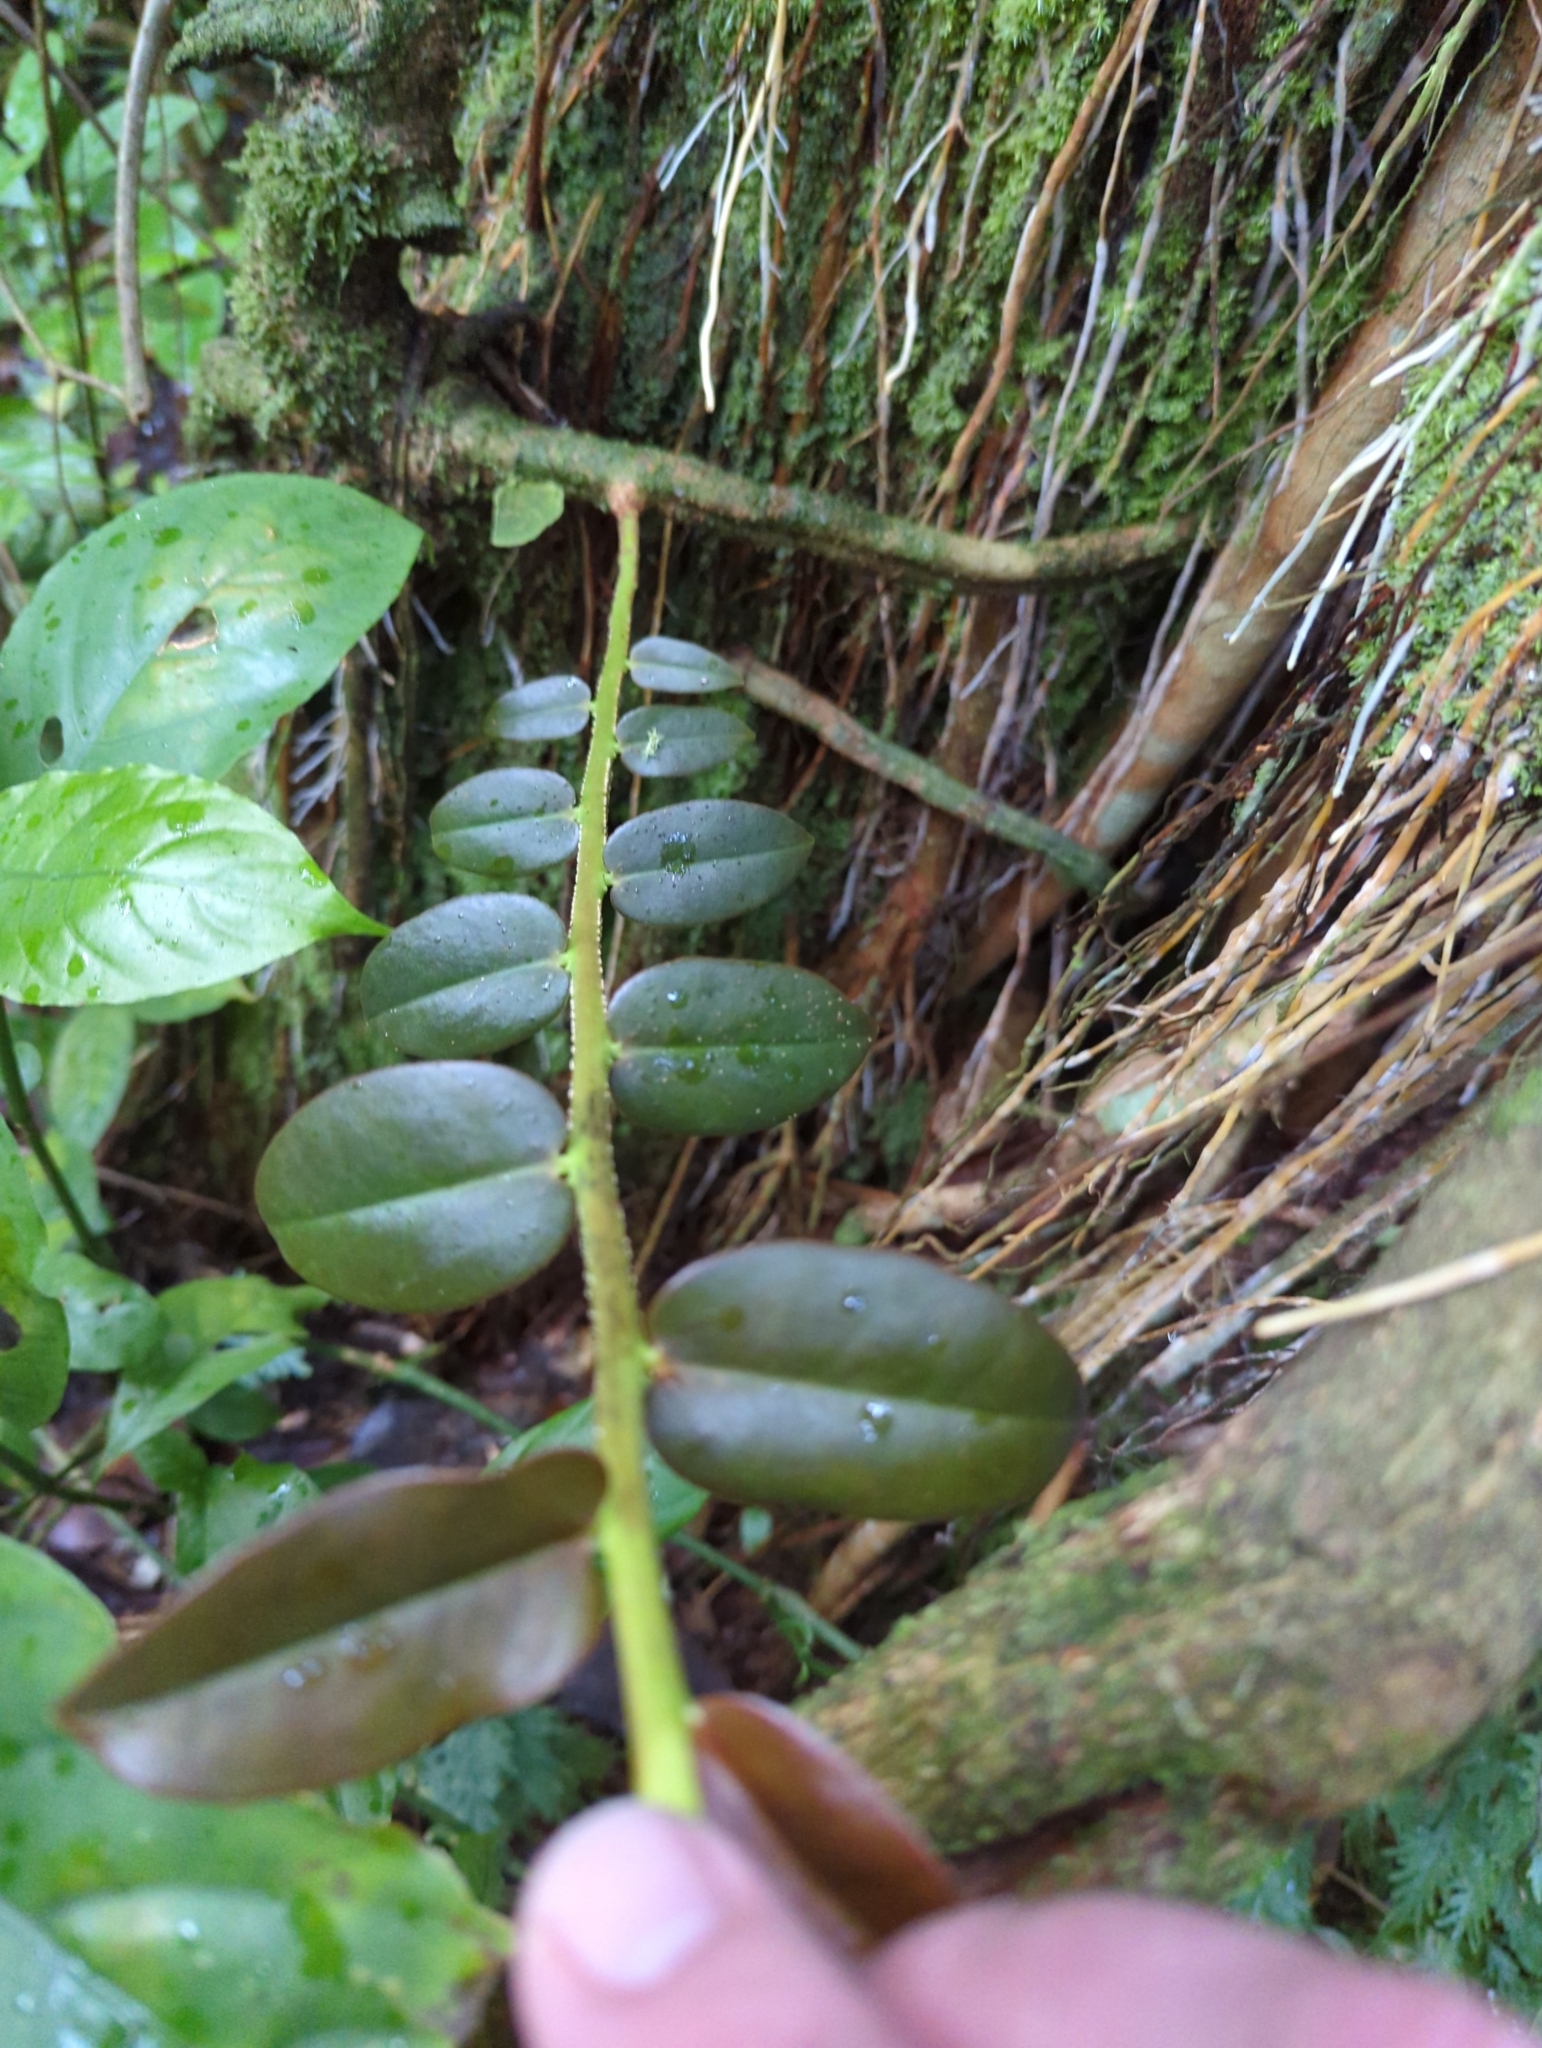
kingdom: Plantae
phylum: Tracheophyta
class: Magnoliopsida
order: Ericales
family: Marcgraviaceae
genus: Marcgravia
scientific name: Marcgravia rectiflora
